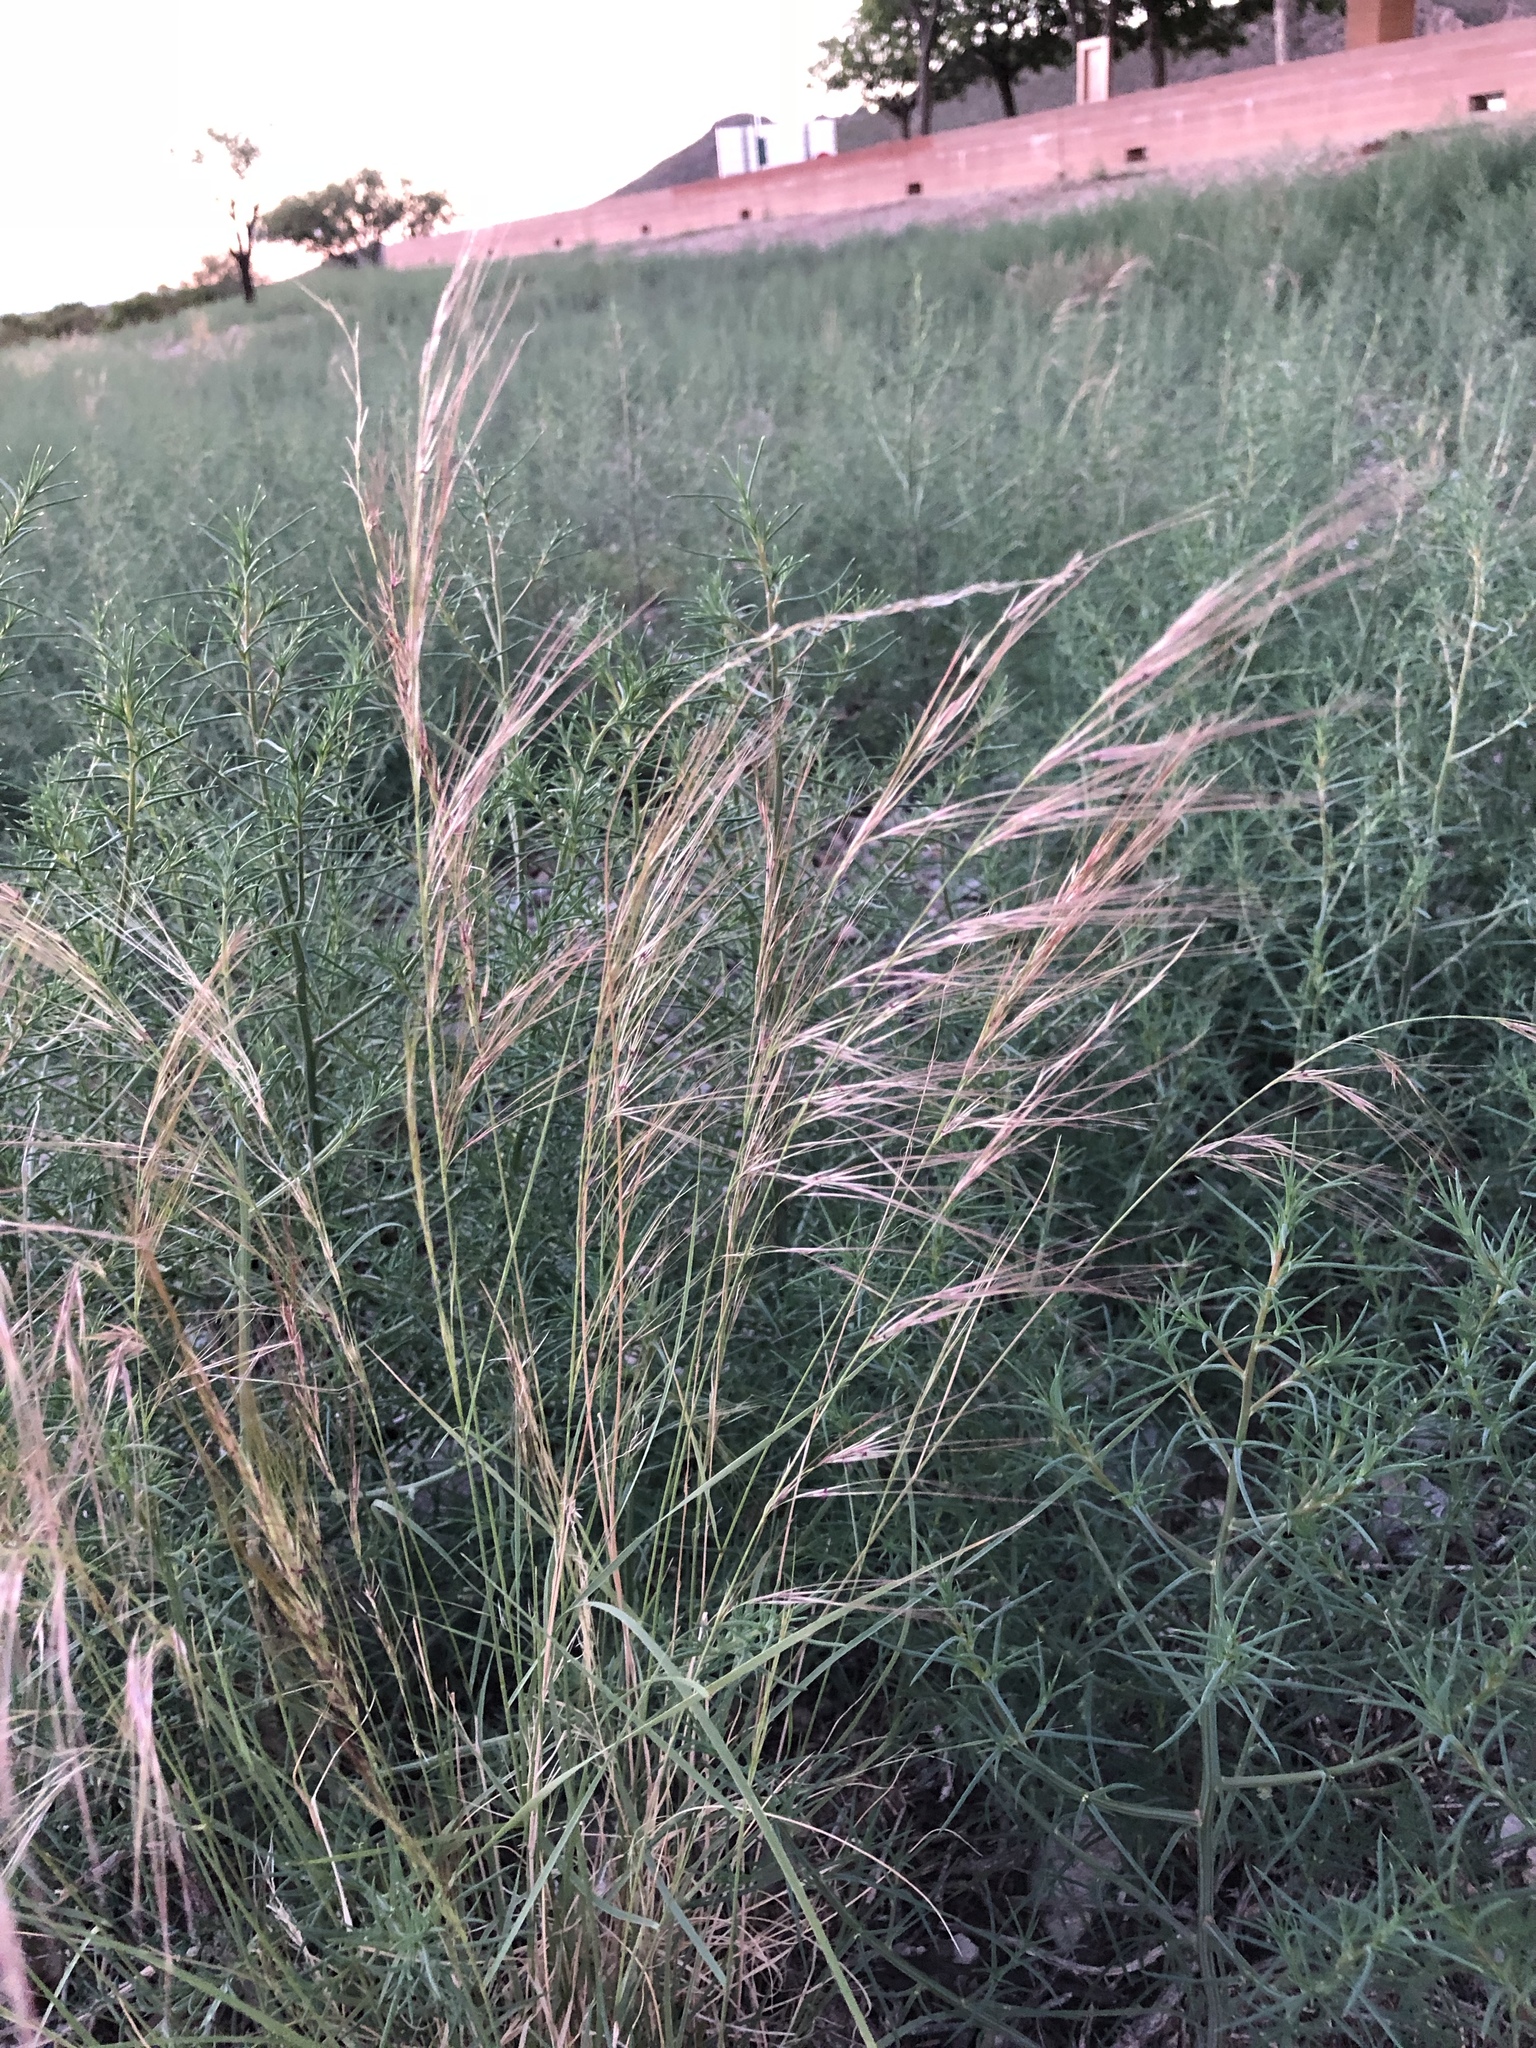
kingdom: Plantae
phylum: Tracheophyta
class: Liliopsida
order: Poales
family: Poaceae
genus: Aristida
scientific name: Aristida purpurea
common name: Purple threeawn
